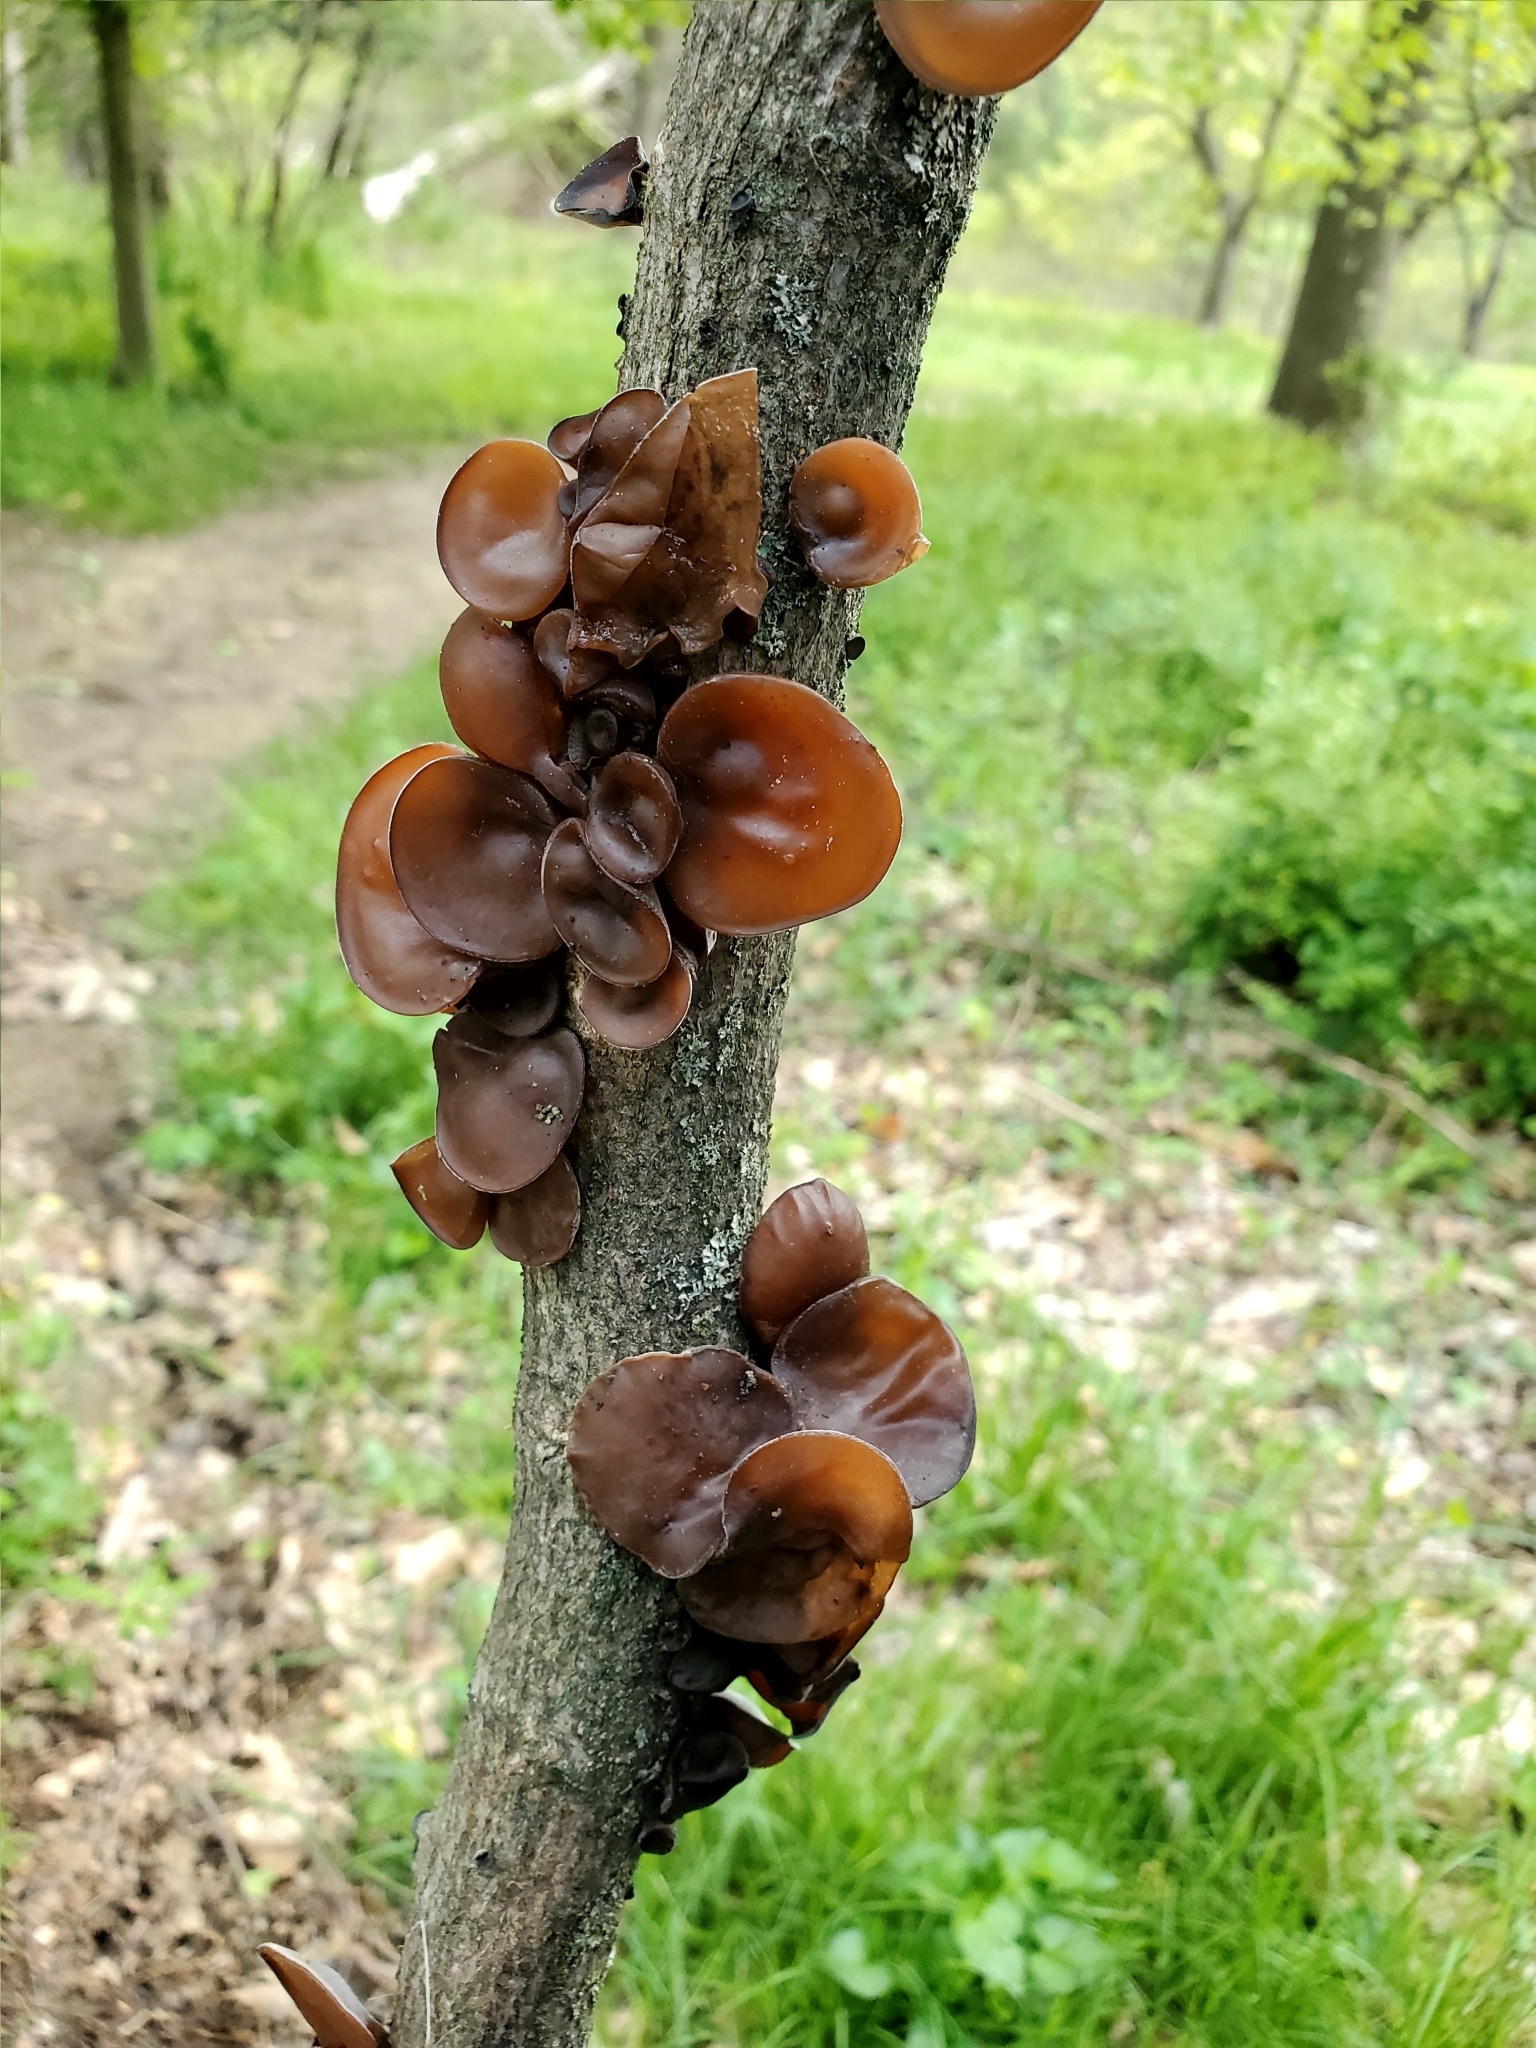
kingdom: Fungi
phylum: Basidiomycota
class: Agaricomycetes
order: Auriculariales
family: Auriculariaceae
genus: Auricularia
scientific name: Auricularia angiospermarum
